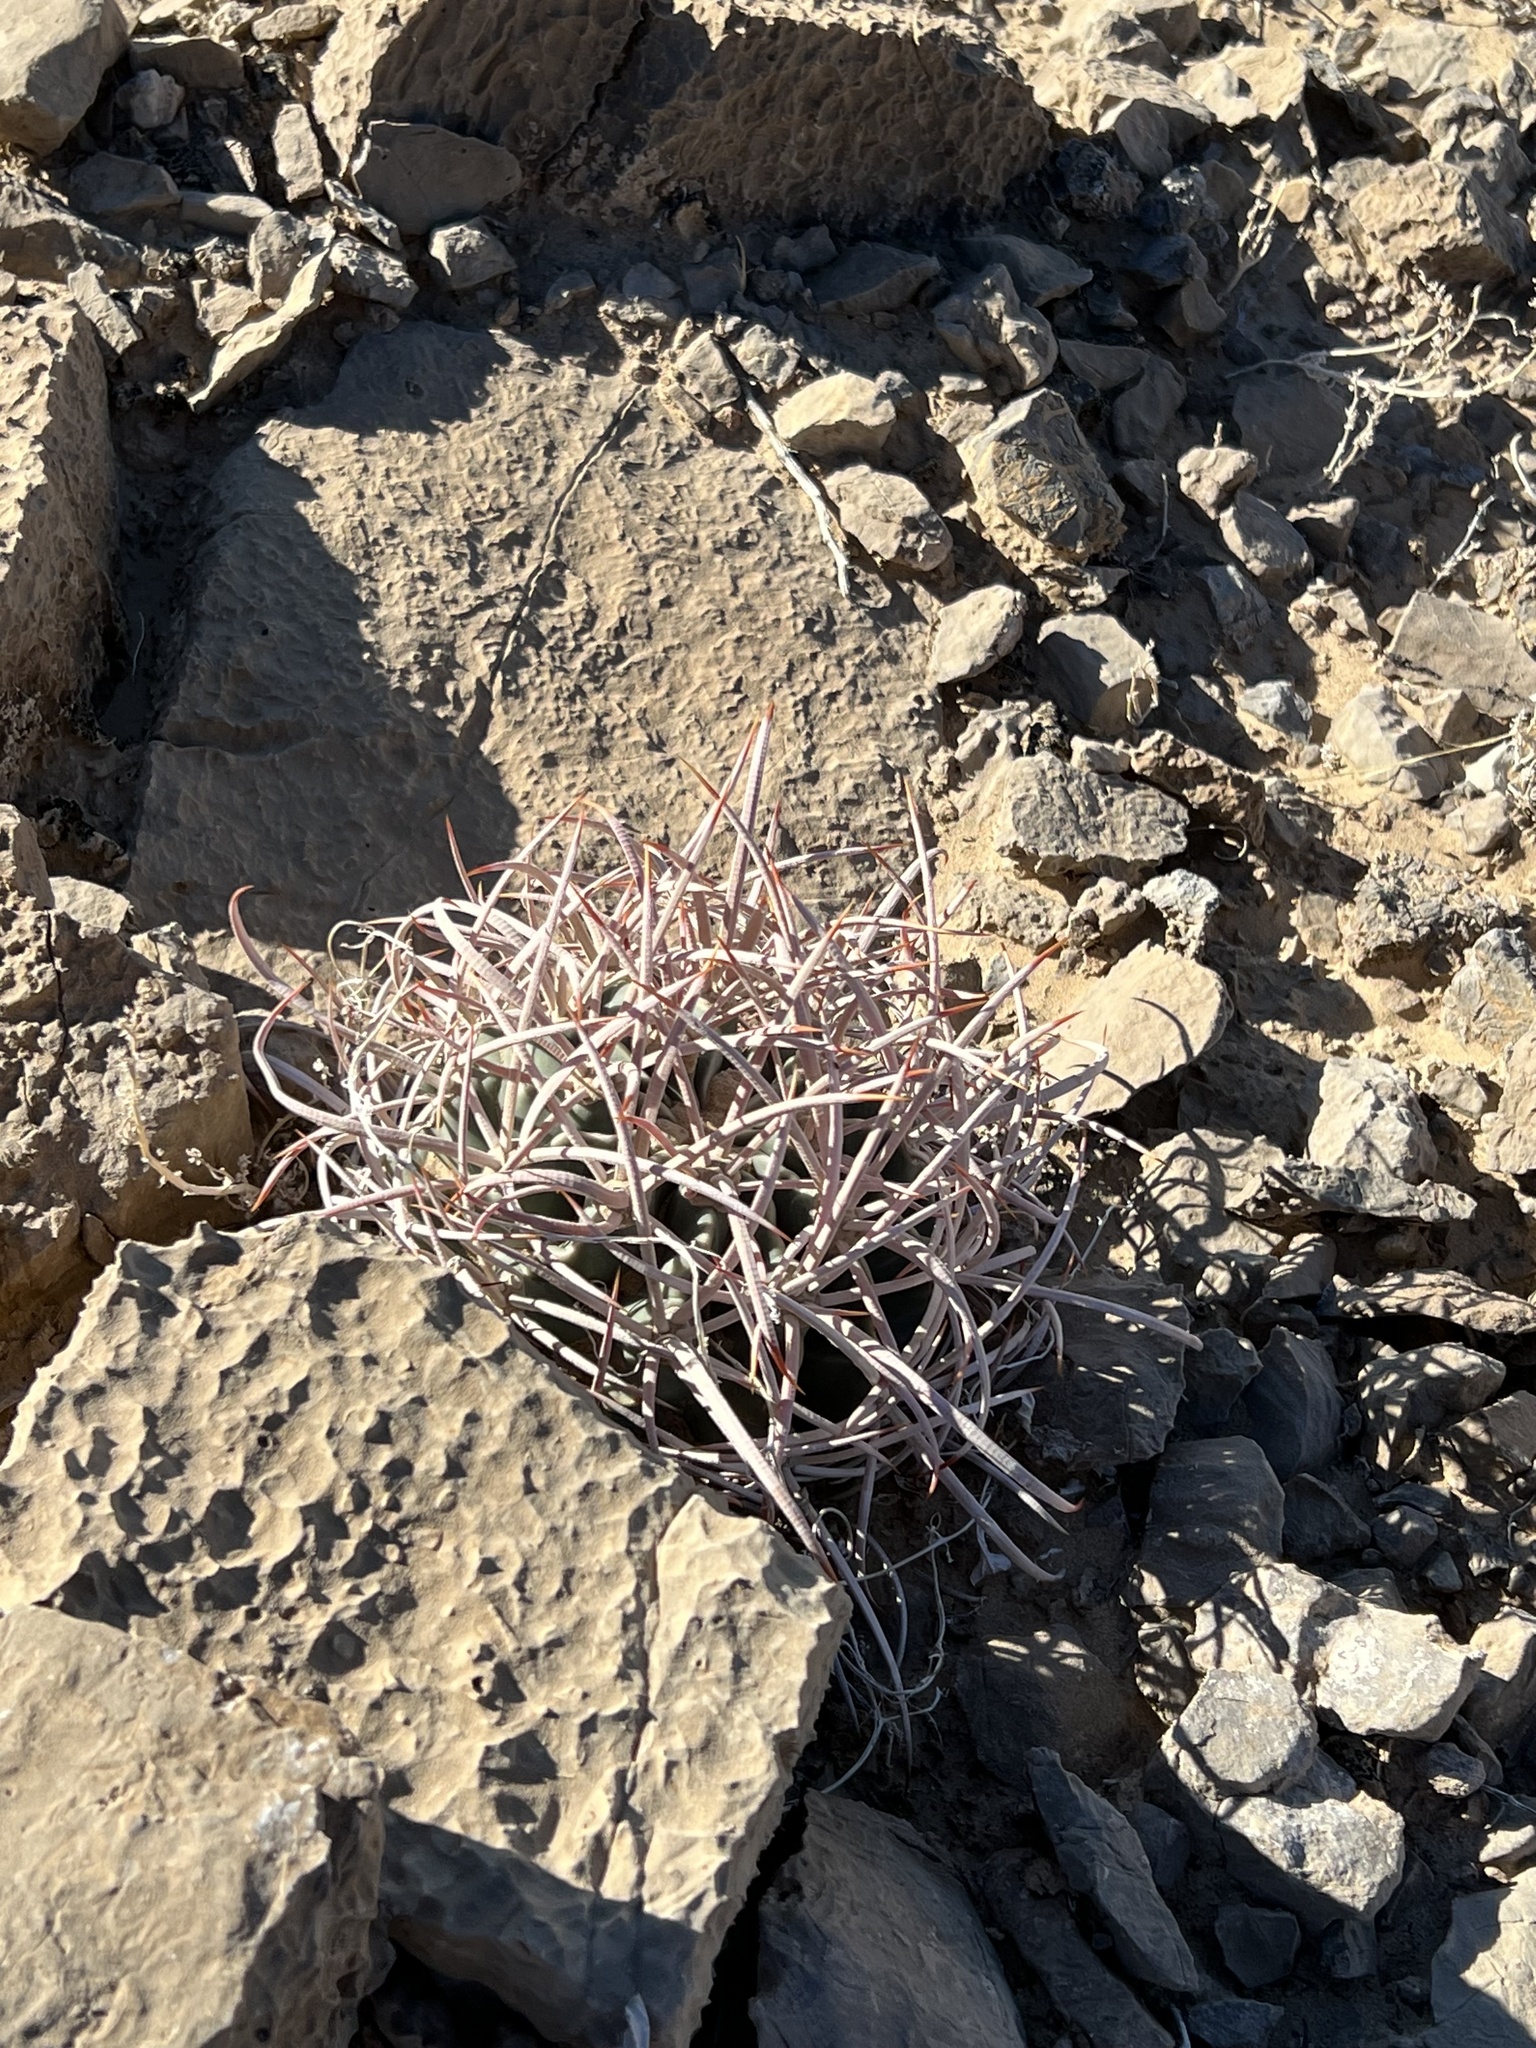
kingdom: Plantae
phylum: Tracheophyta
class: Magnoliopsida
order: Caryophyllales
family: Cactaceae
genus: Echinocactus
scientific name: Echinocactus polycephalus
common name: Cottontop cactus
